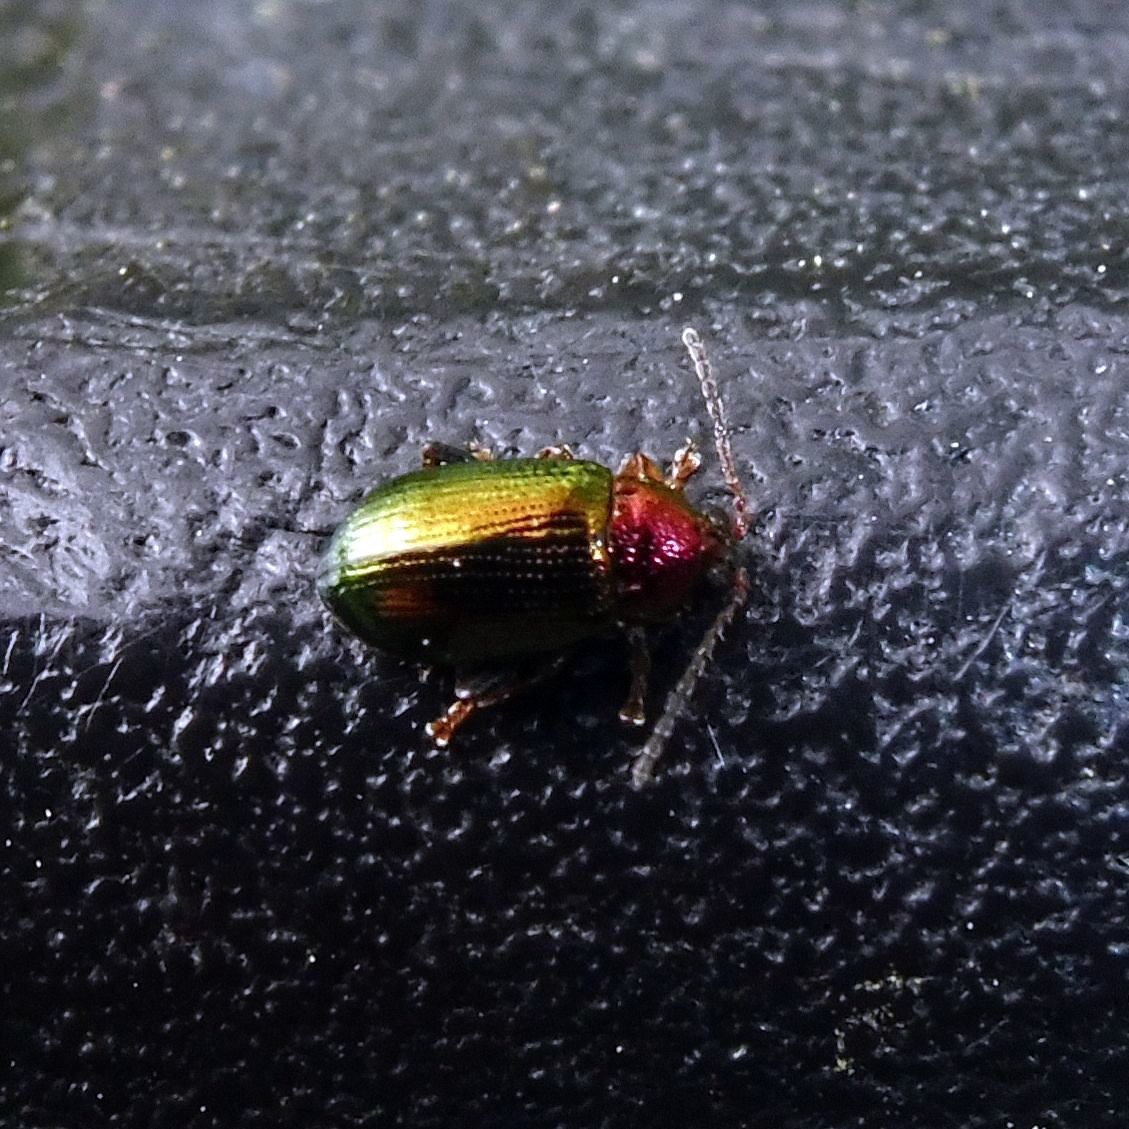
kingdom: Animalia
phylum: Arthropoda
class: Insecta
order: Coleoptera
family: Chrysomelidae
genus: Crepidodera
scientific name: Crepidodera aurata
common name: Willow flea beetle
